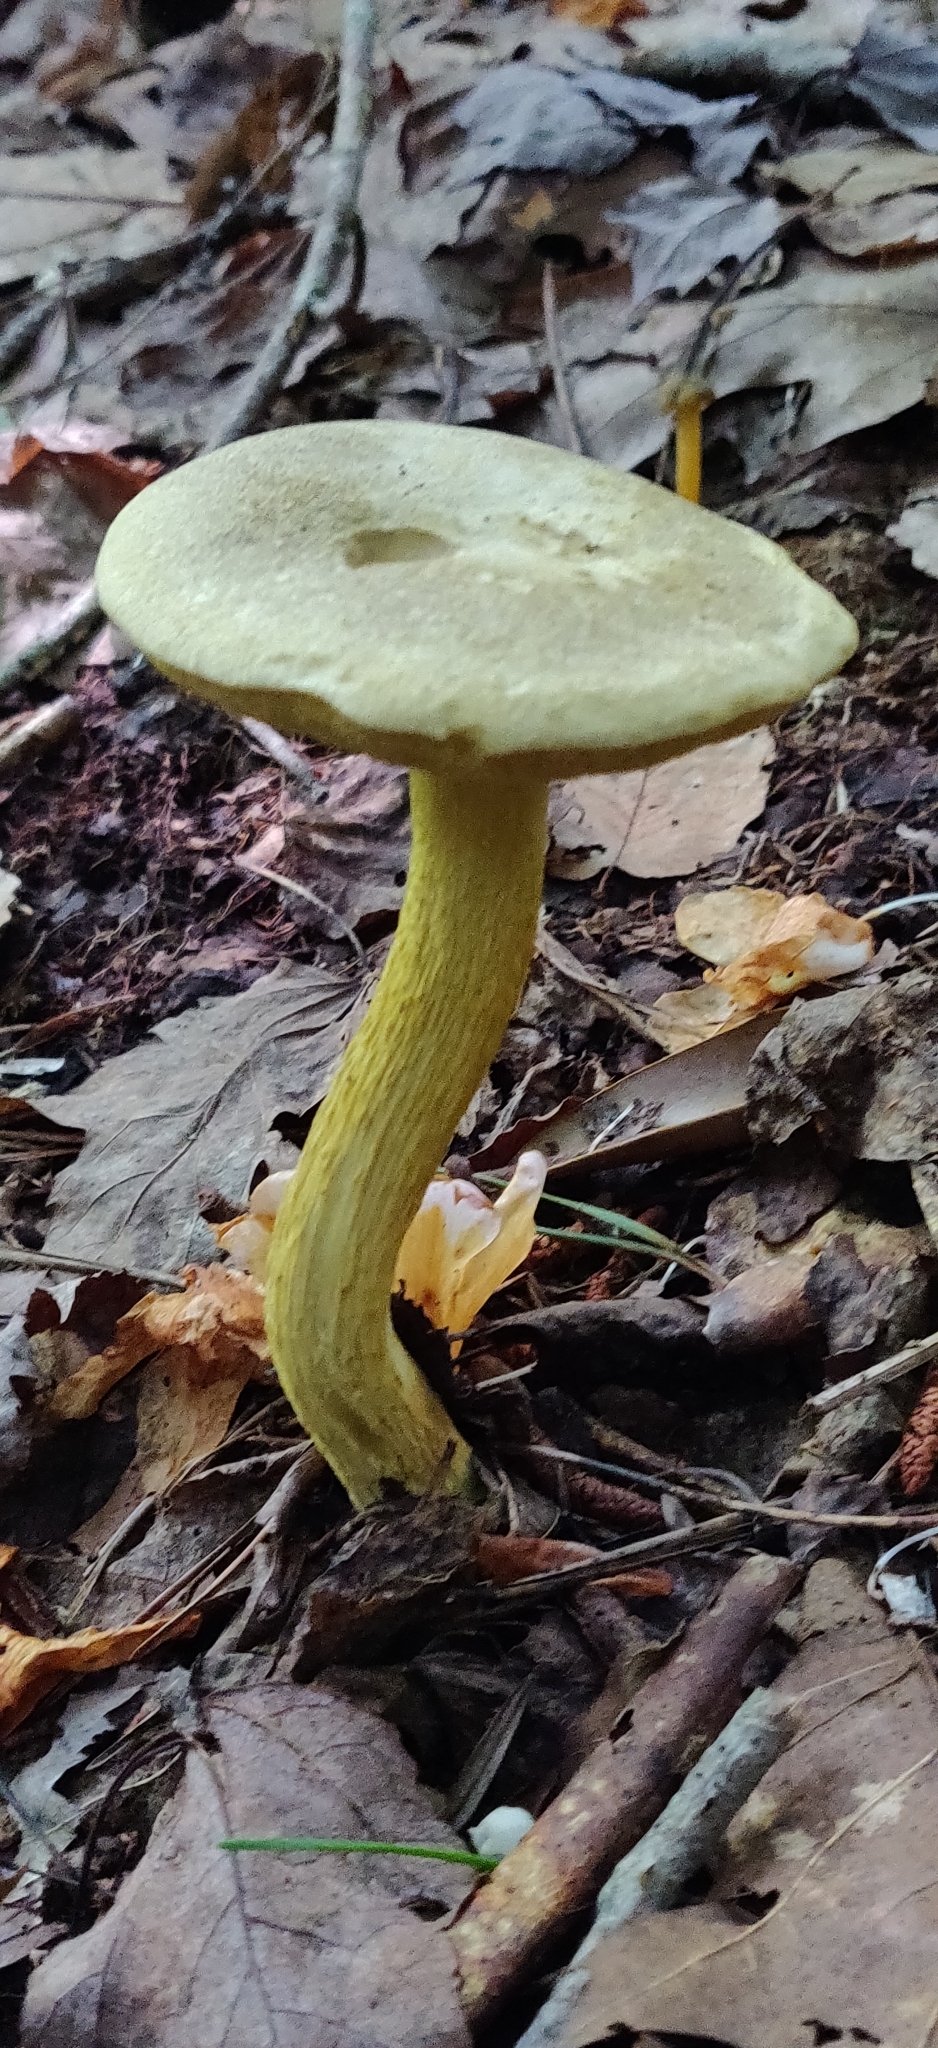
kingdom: Fungi
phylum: Basidiomycota
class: Agaricomycetes
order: Boletales
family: Boletaceae
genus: Retiboletus
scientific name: Retiboletus ornatipes
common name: Ornate-stalked bolete
